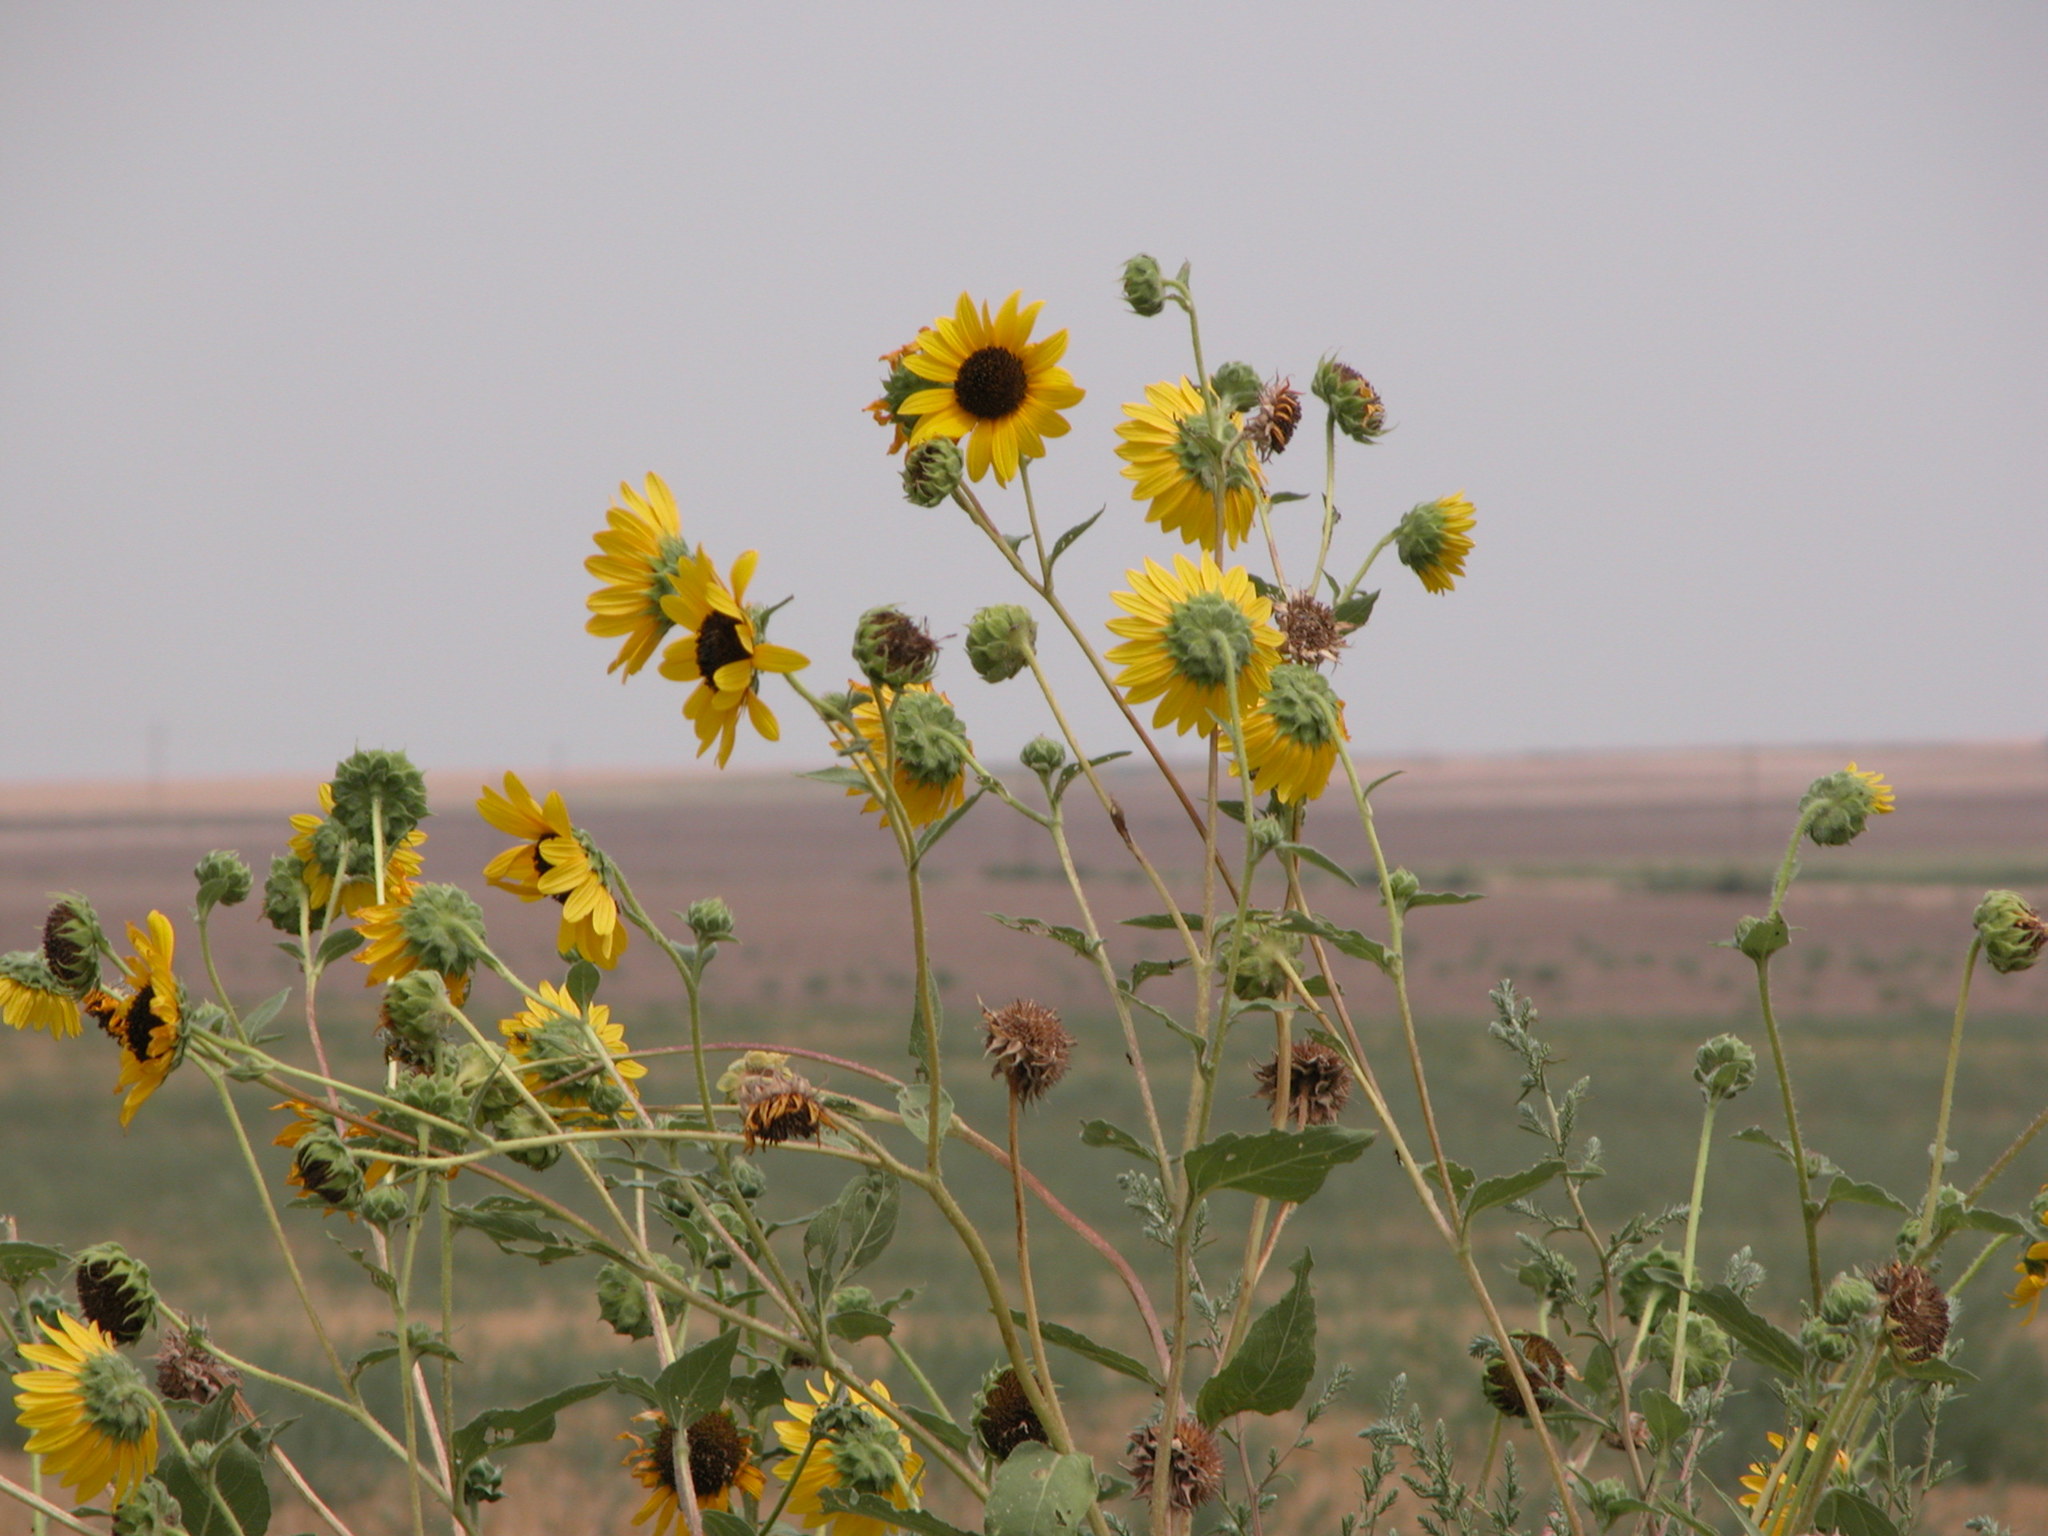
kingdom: Plantae
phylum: Tracheophyta
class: Magnoliopsida
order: Asterales
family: Asteraceae
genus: Helianthus
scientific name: Helianthus annuus
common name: Sunflower
